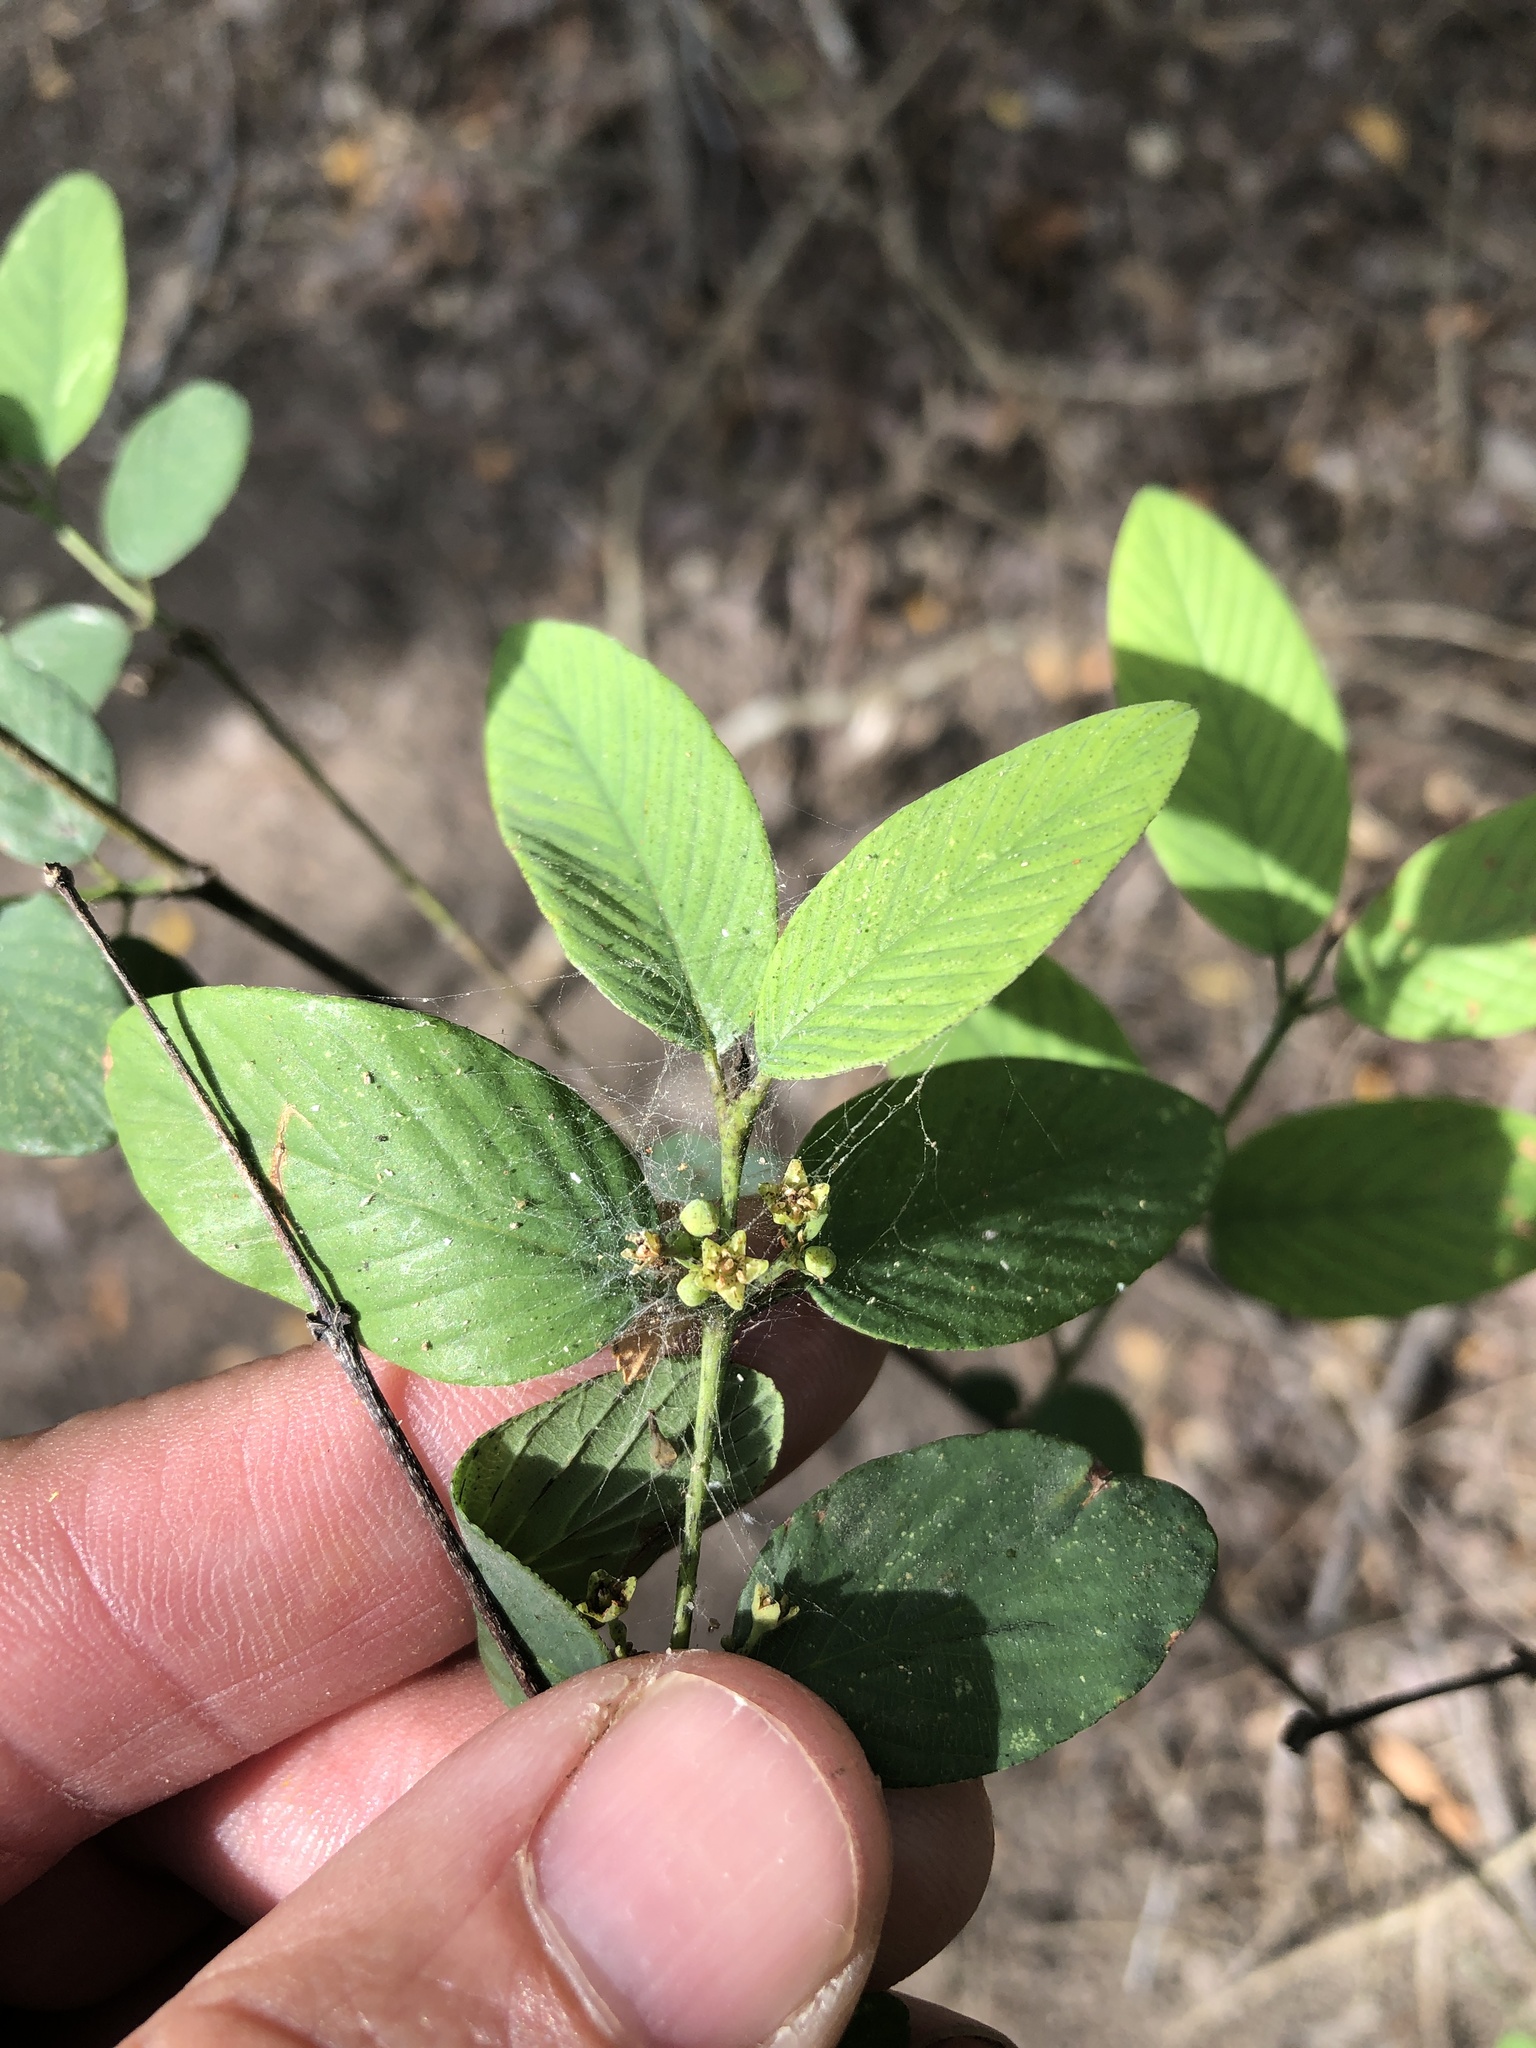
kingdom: Plantae
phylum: Tracheophyta
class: Magnoliopsida
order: Rosales
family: Rhamnaceae
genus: Karwinskia
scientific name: Karwinskia humboldtiana
